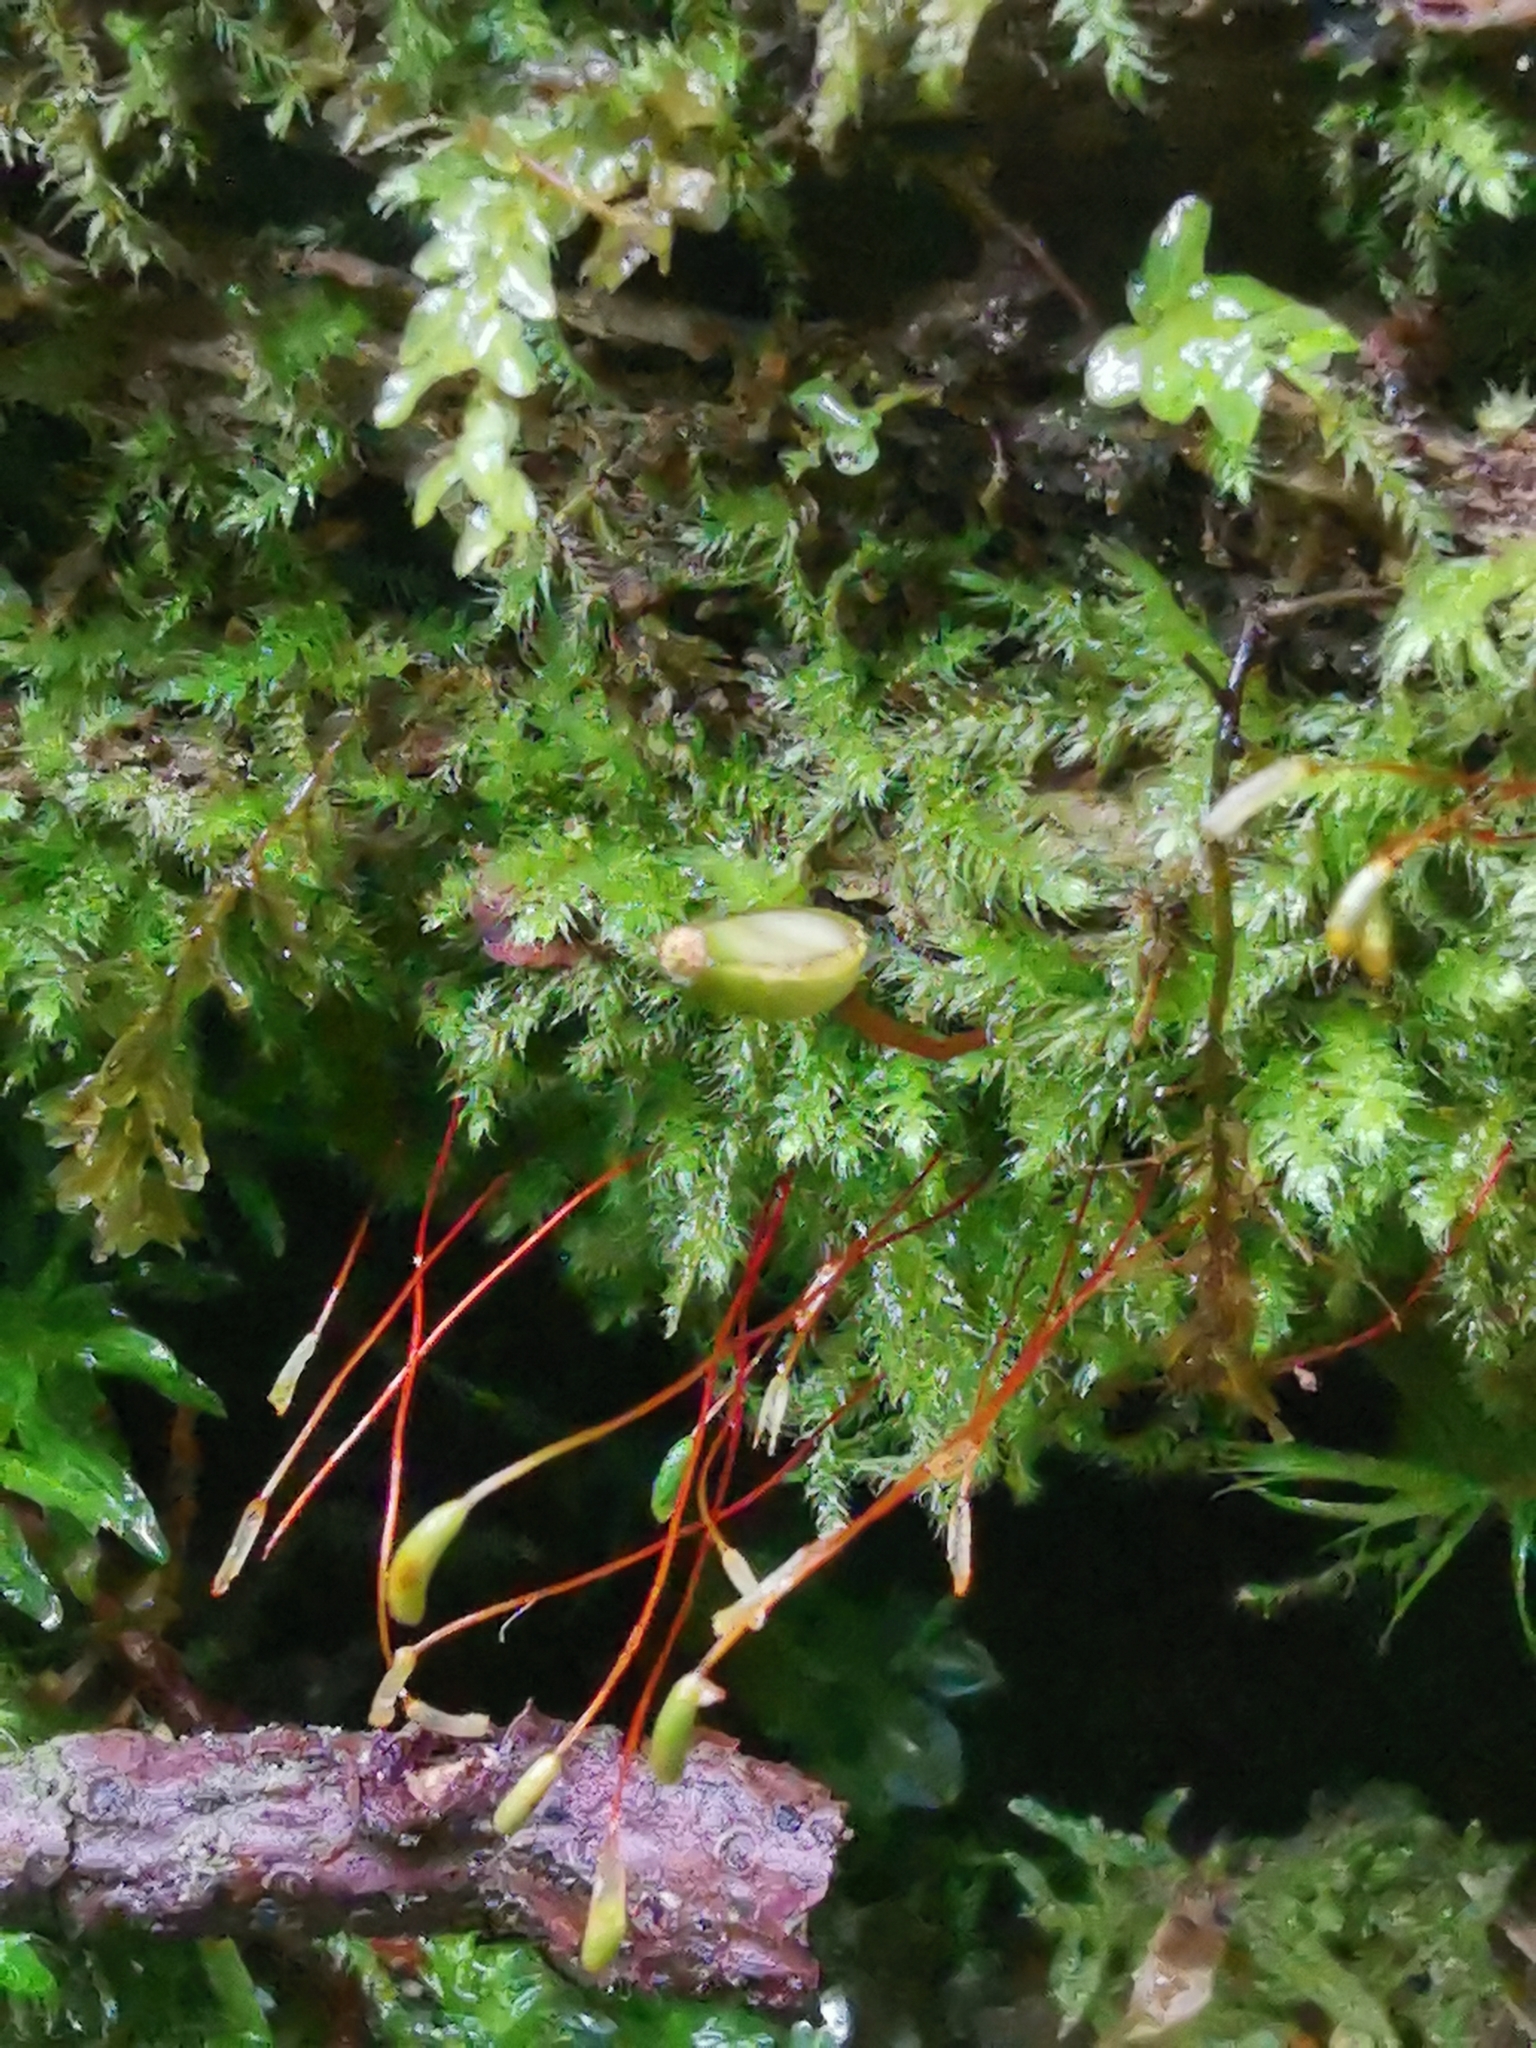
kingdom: Plantae
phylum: Bryophyta
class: Bryopsida
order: Buxbaumiales
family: Buxbaumiaceae
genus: Buxbaumia
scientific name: Buxbaumia viridis
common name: Green shield-moss
